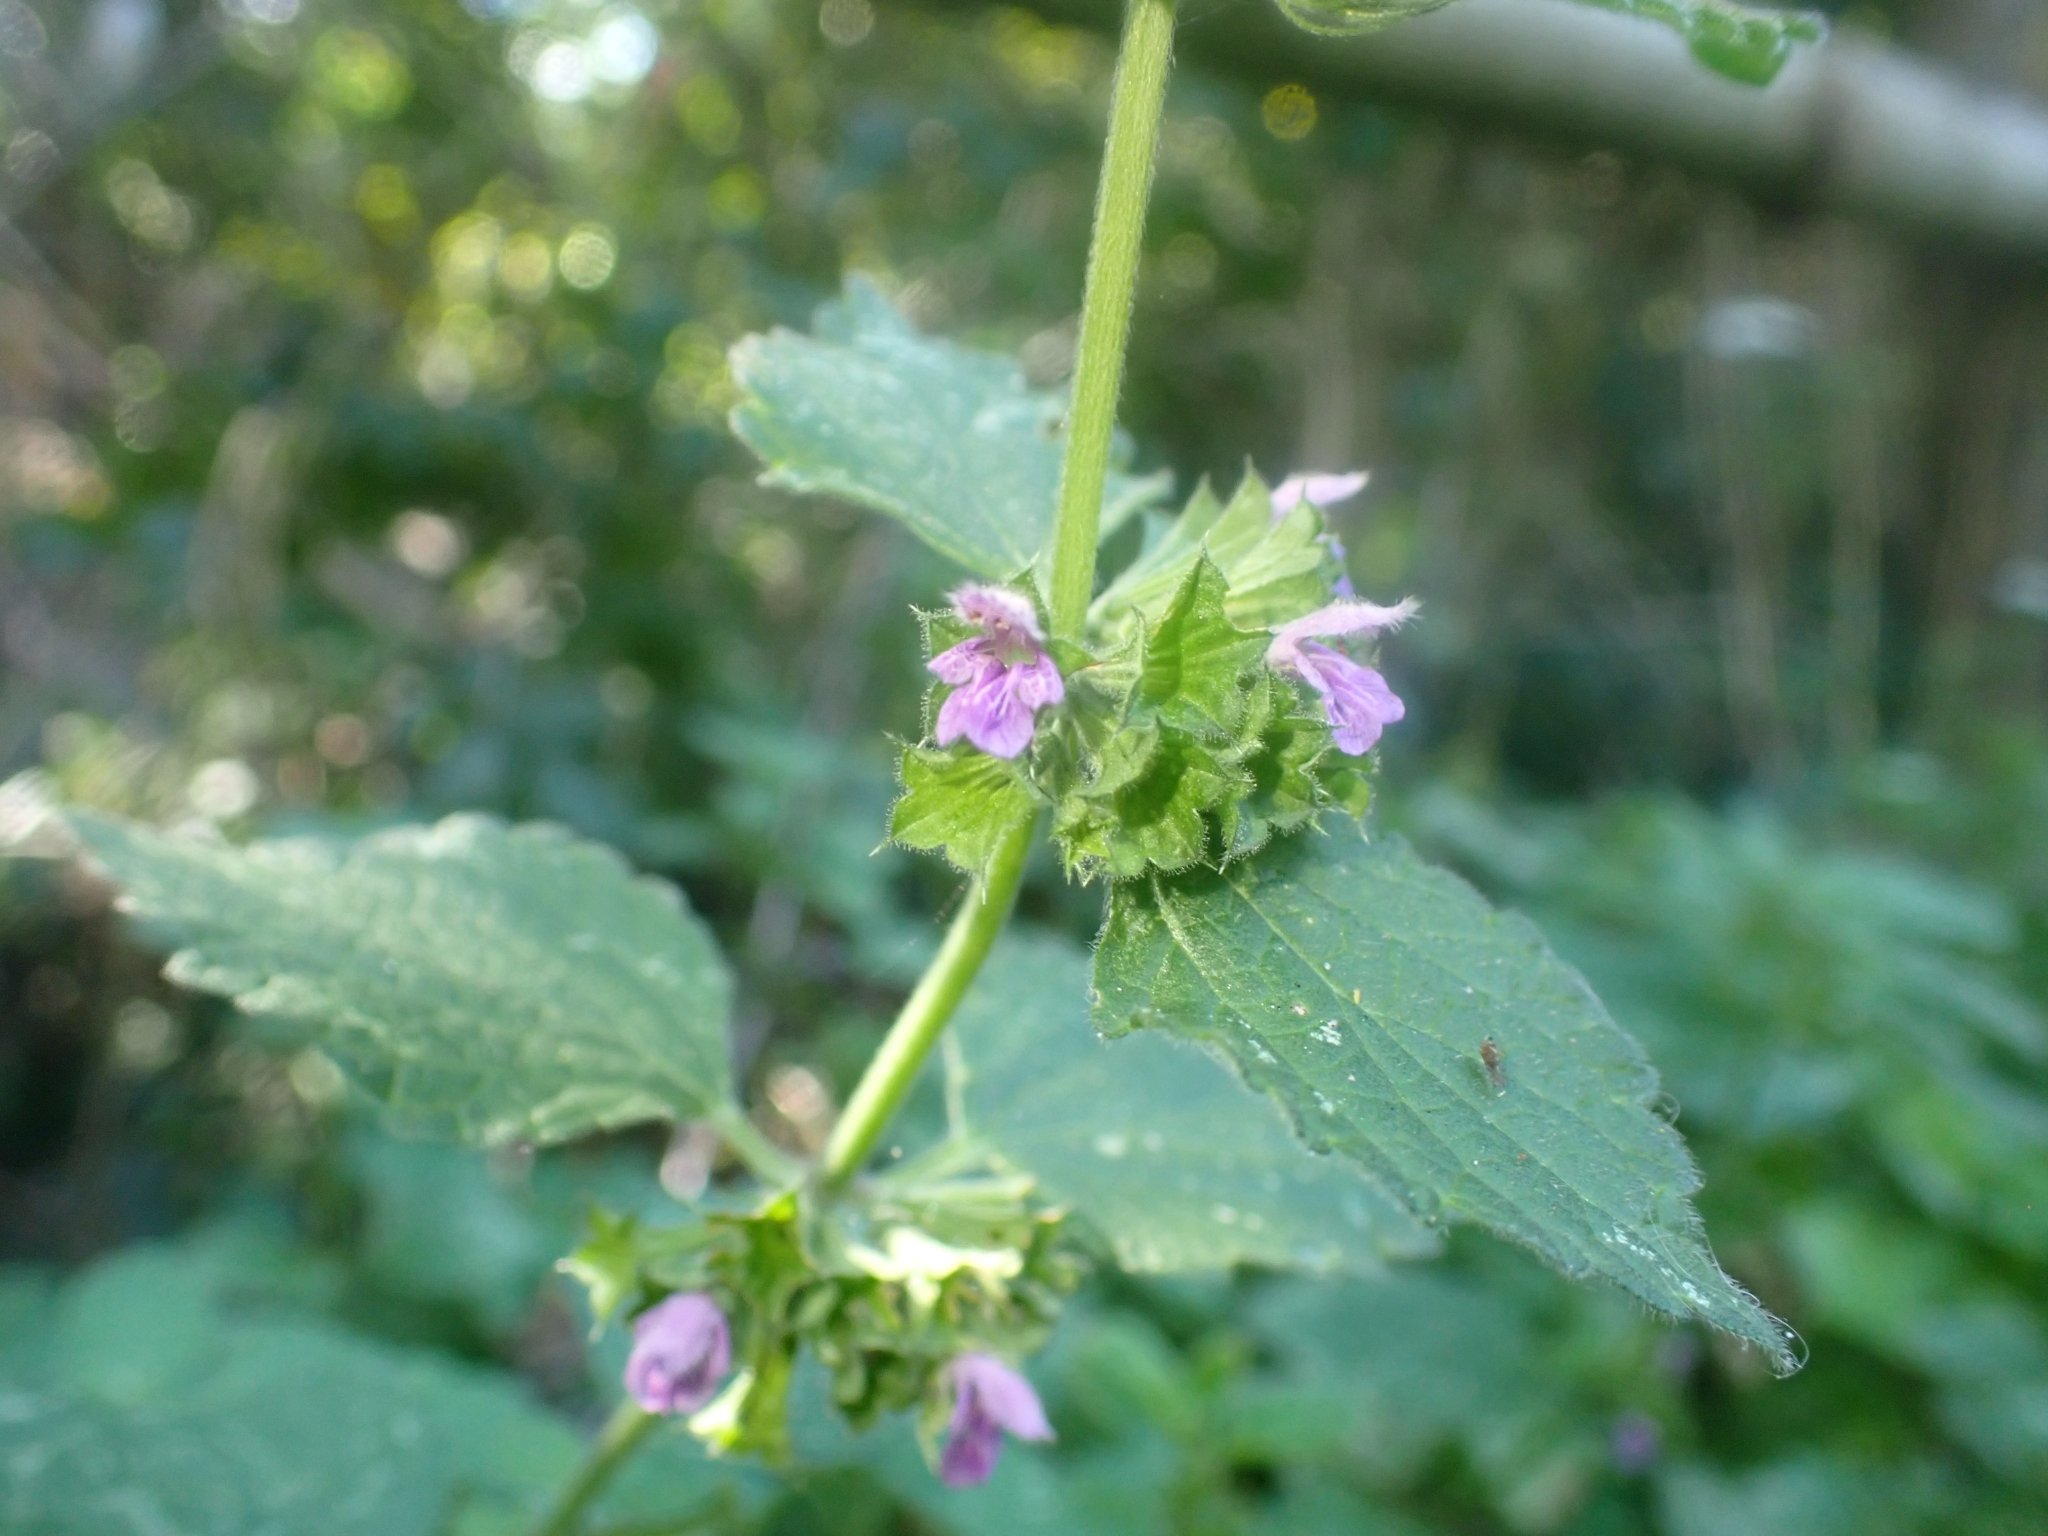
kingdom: Plantae
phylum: Tracheophyta
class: Magnoliopsida
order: Lamiales
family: Lamiaceae
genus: Ballota
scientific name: Ballota nigra
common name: Black horehound
